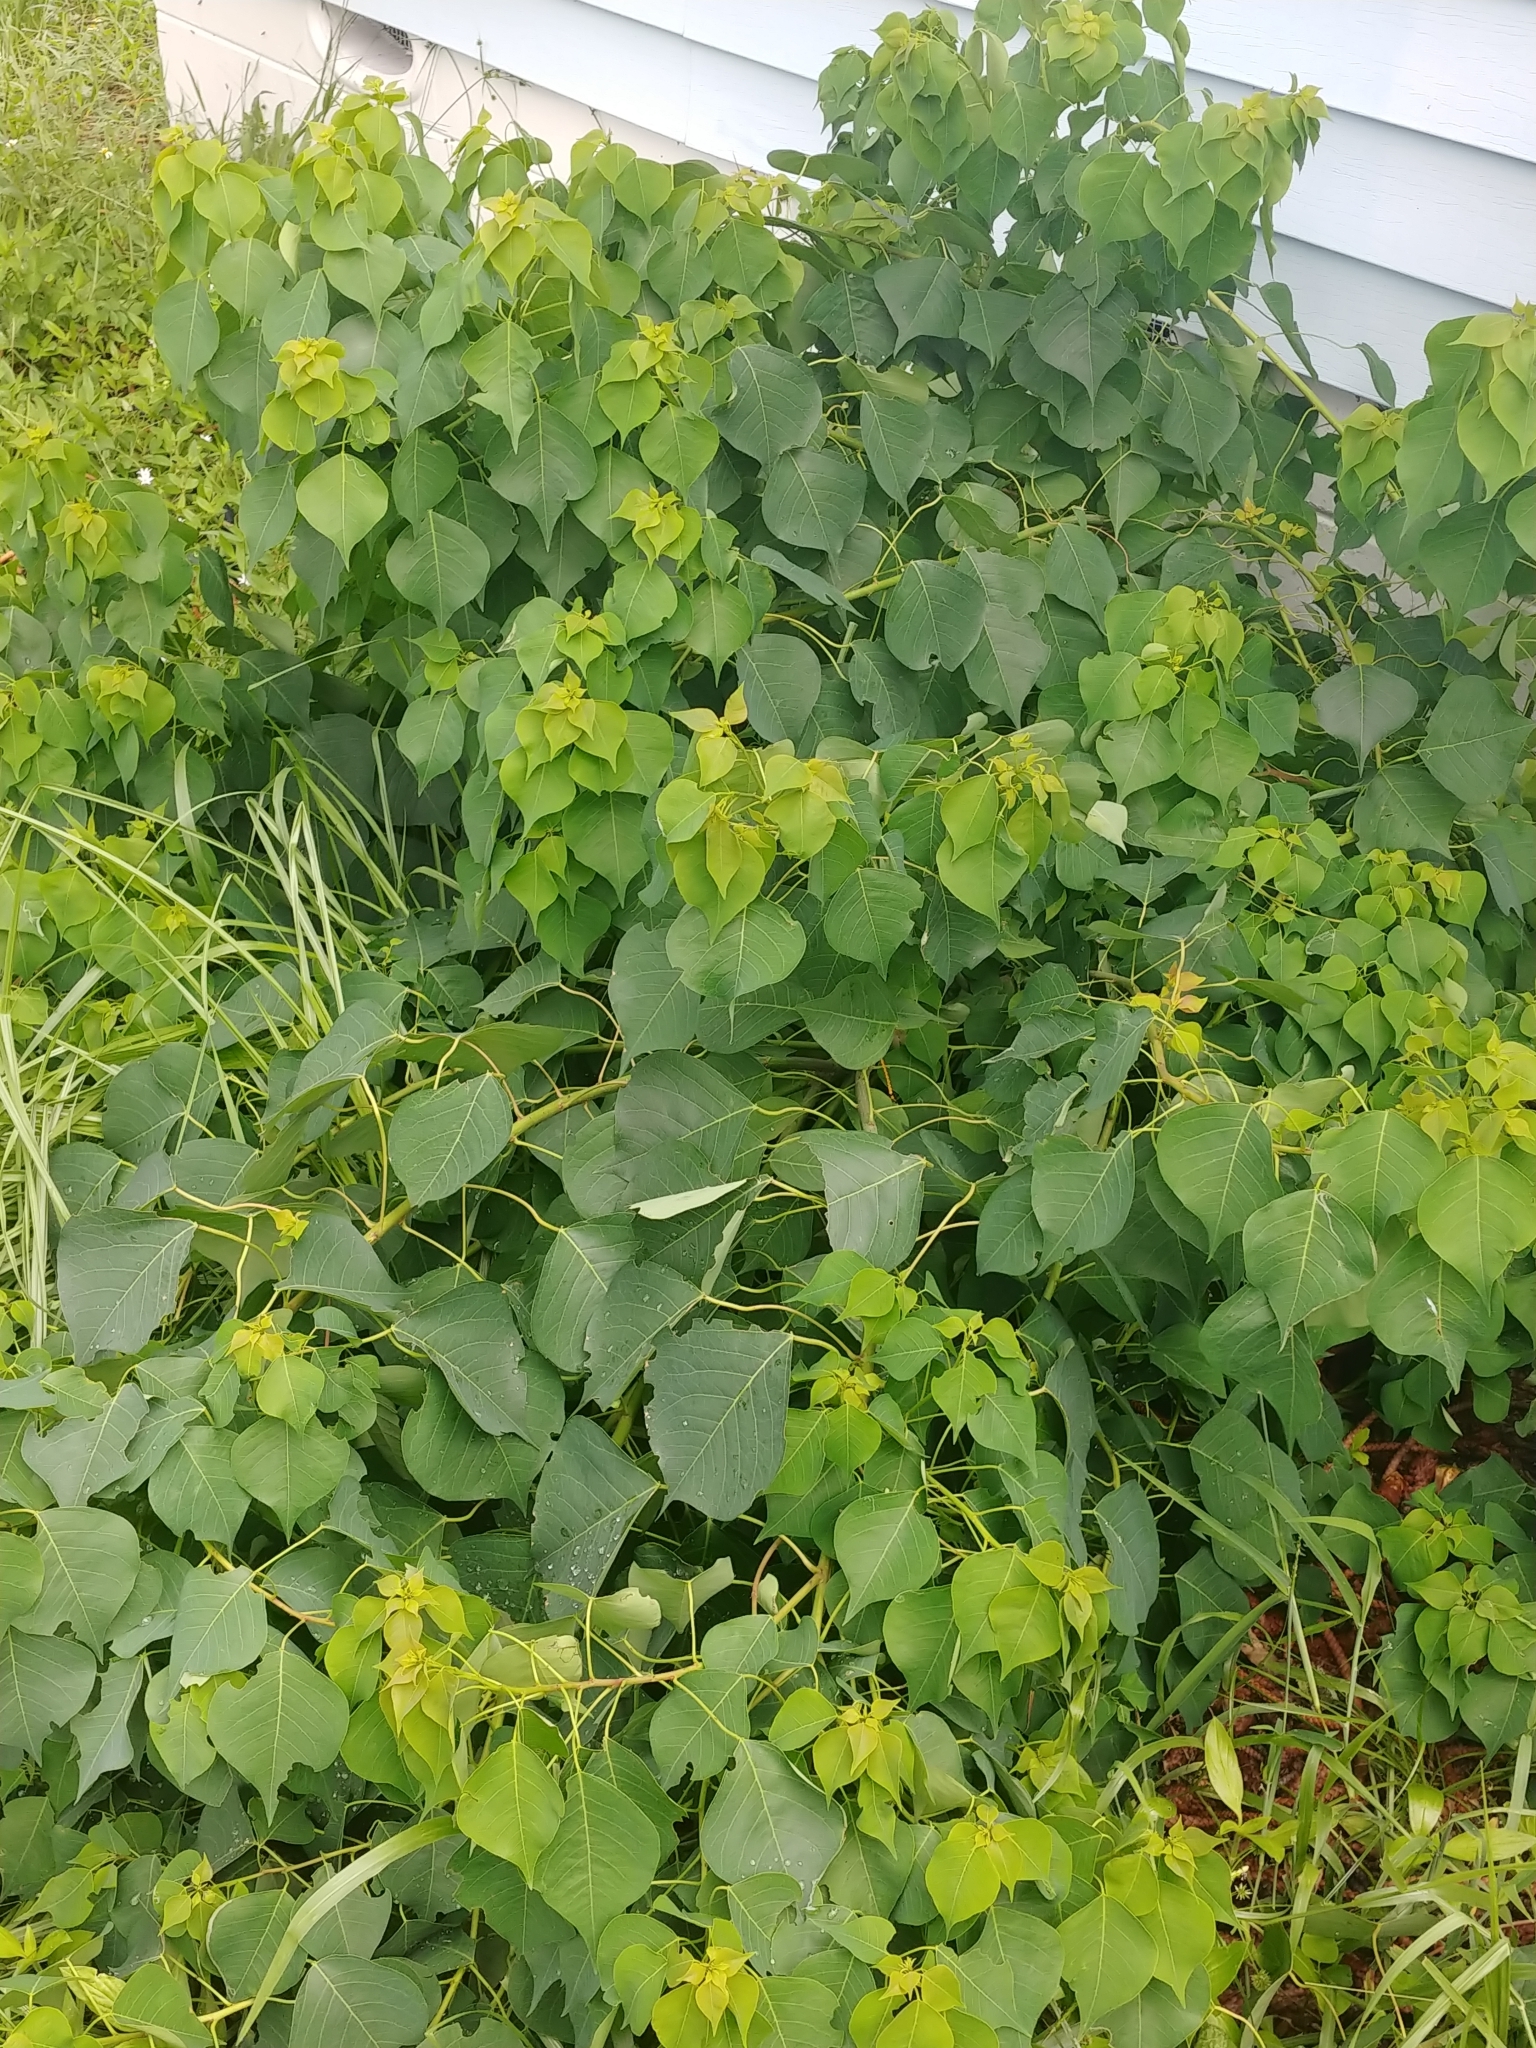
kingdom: Plantae
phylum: Tracheophyta
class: Magnoliopsida
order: Malpighiales
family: Euphorbiaceae
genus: Triadica
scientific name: Triadica sebifera
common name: Chinese tallow
